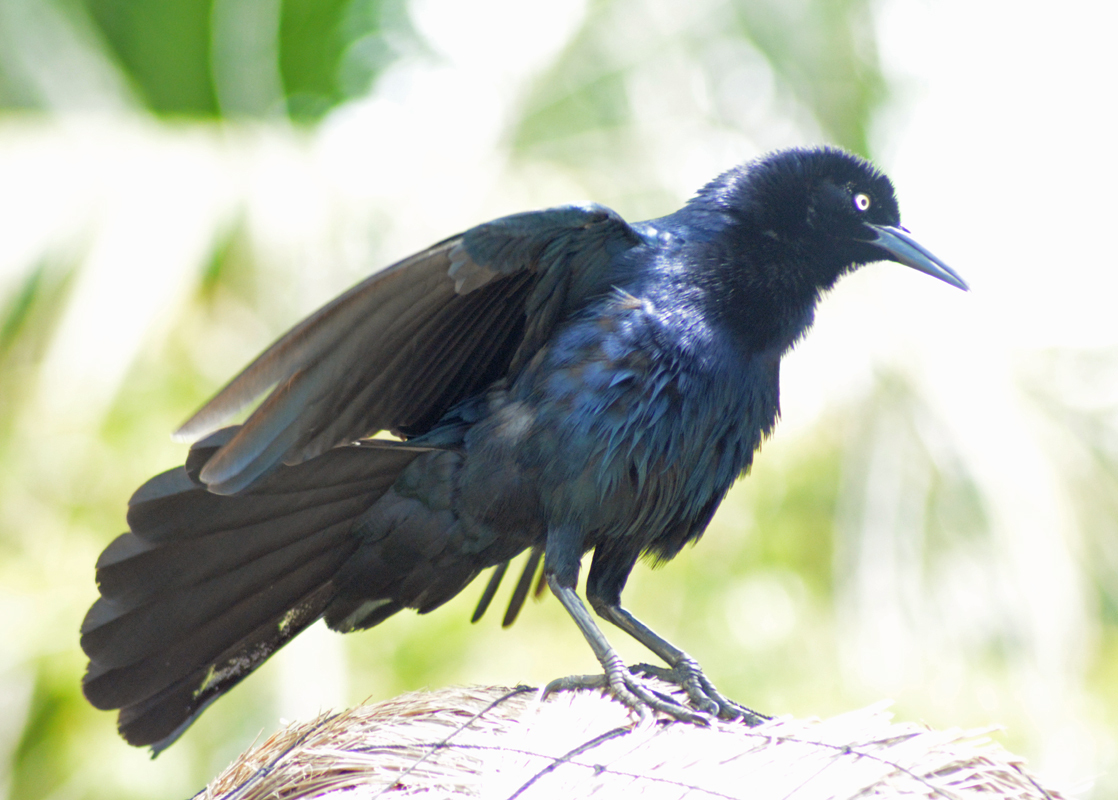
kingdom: Animalia
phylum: Chordata
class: Aves
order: Passeriformes
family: Icteridae
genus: Quiscalus
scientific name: Quiscalus mexicanus
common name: Great-tailed grackle
